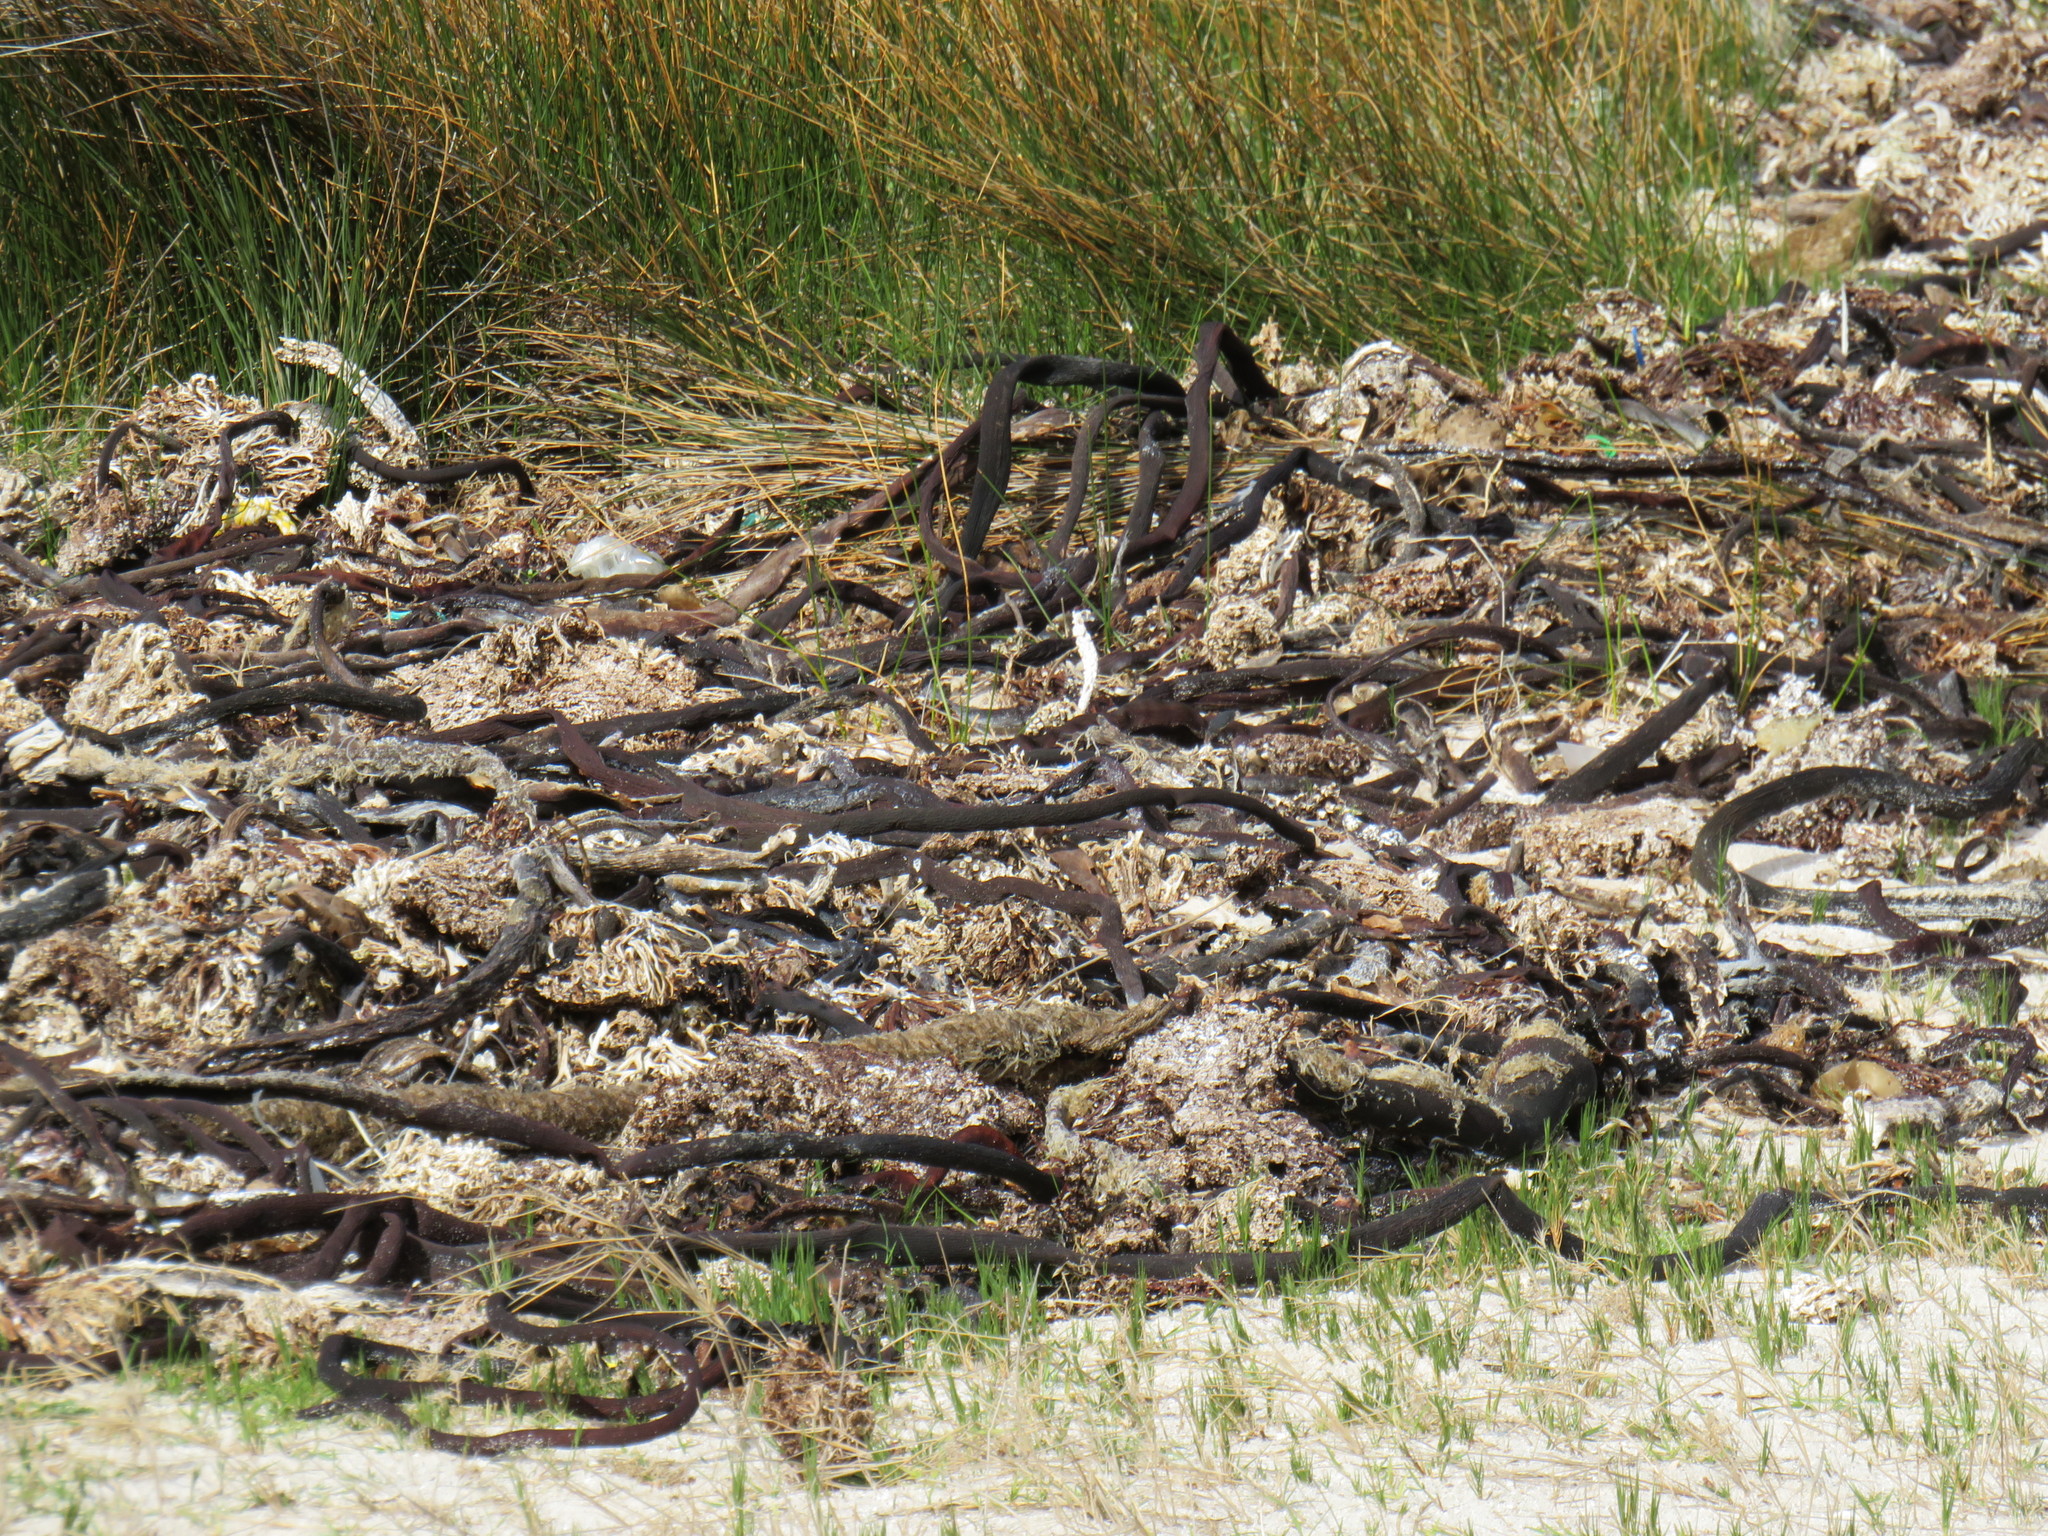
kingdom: Chromista
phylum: Ochrophyta
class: Phaeophyceae
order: Laminariales
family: Lessoniaceae
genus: Ecklonia
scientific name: Ecklonia
